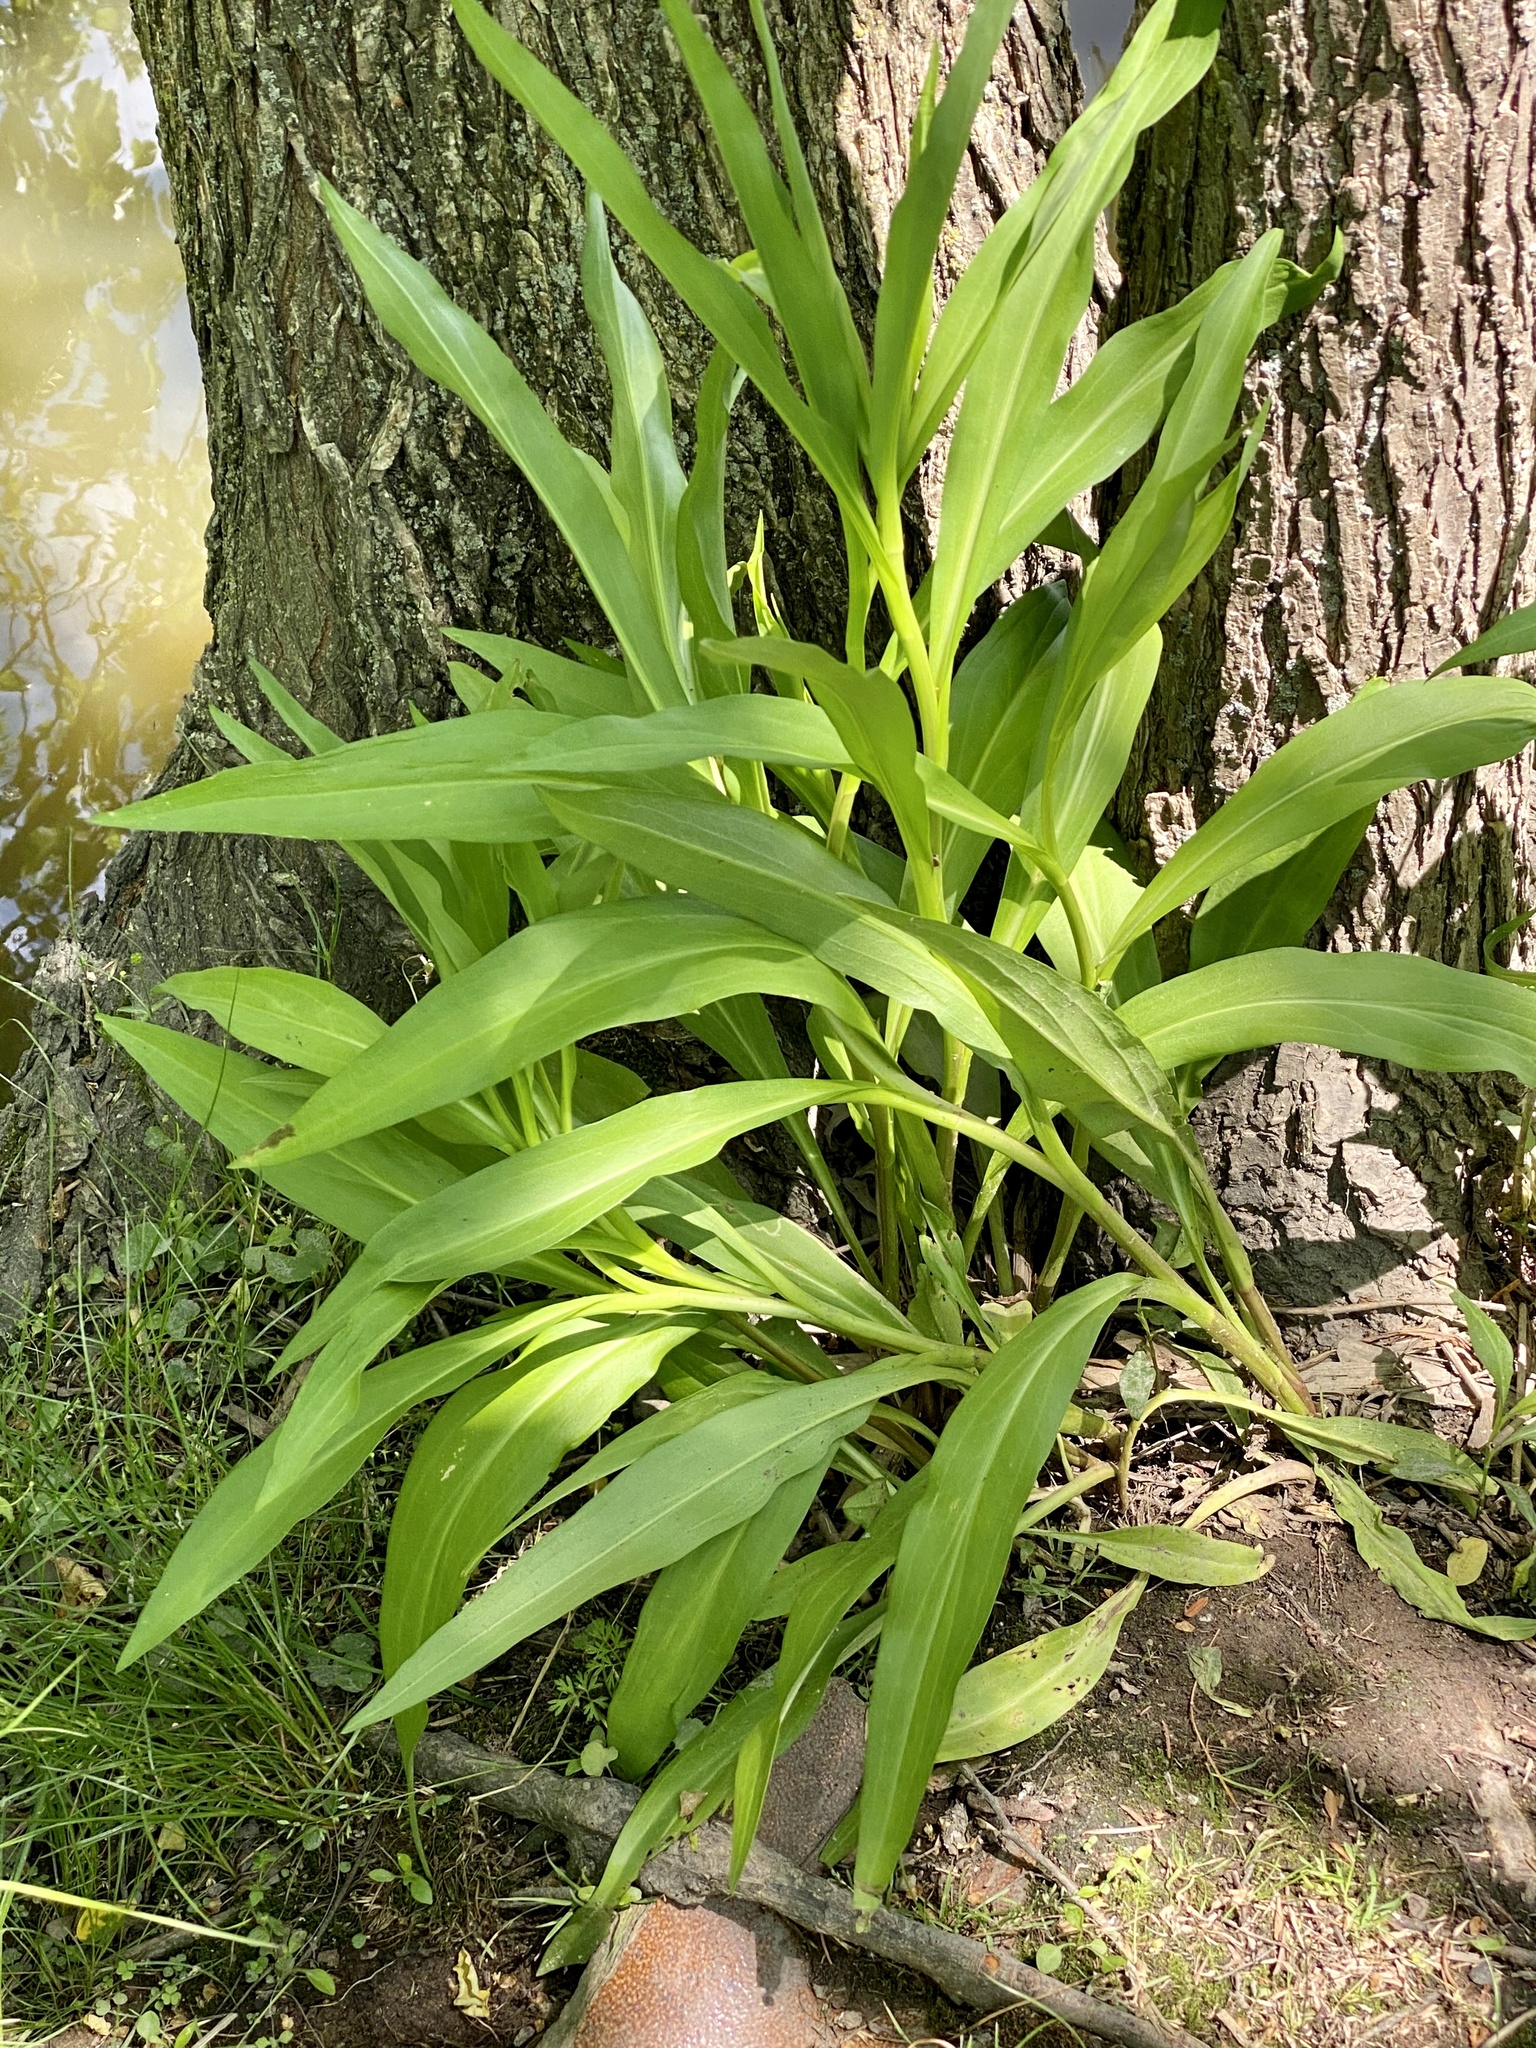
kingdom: Plantae
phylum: Tracheophyta
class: Magnoliopsida
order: Asterales
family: Asteraceae
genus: Solidago
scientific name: Solidago sempervirens
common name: Salt-marsh goldenrod
